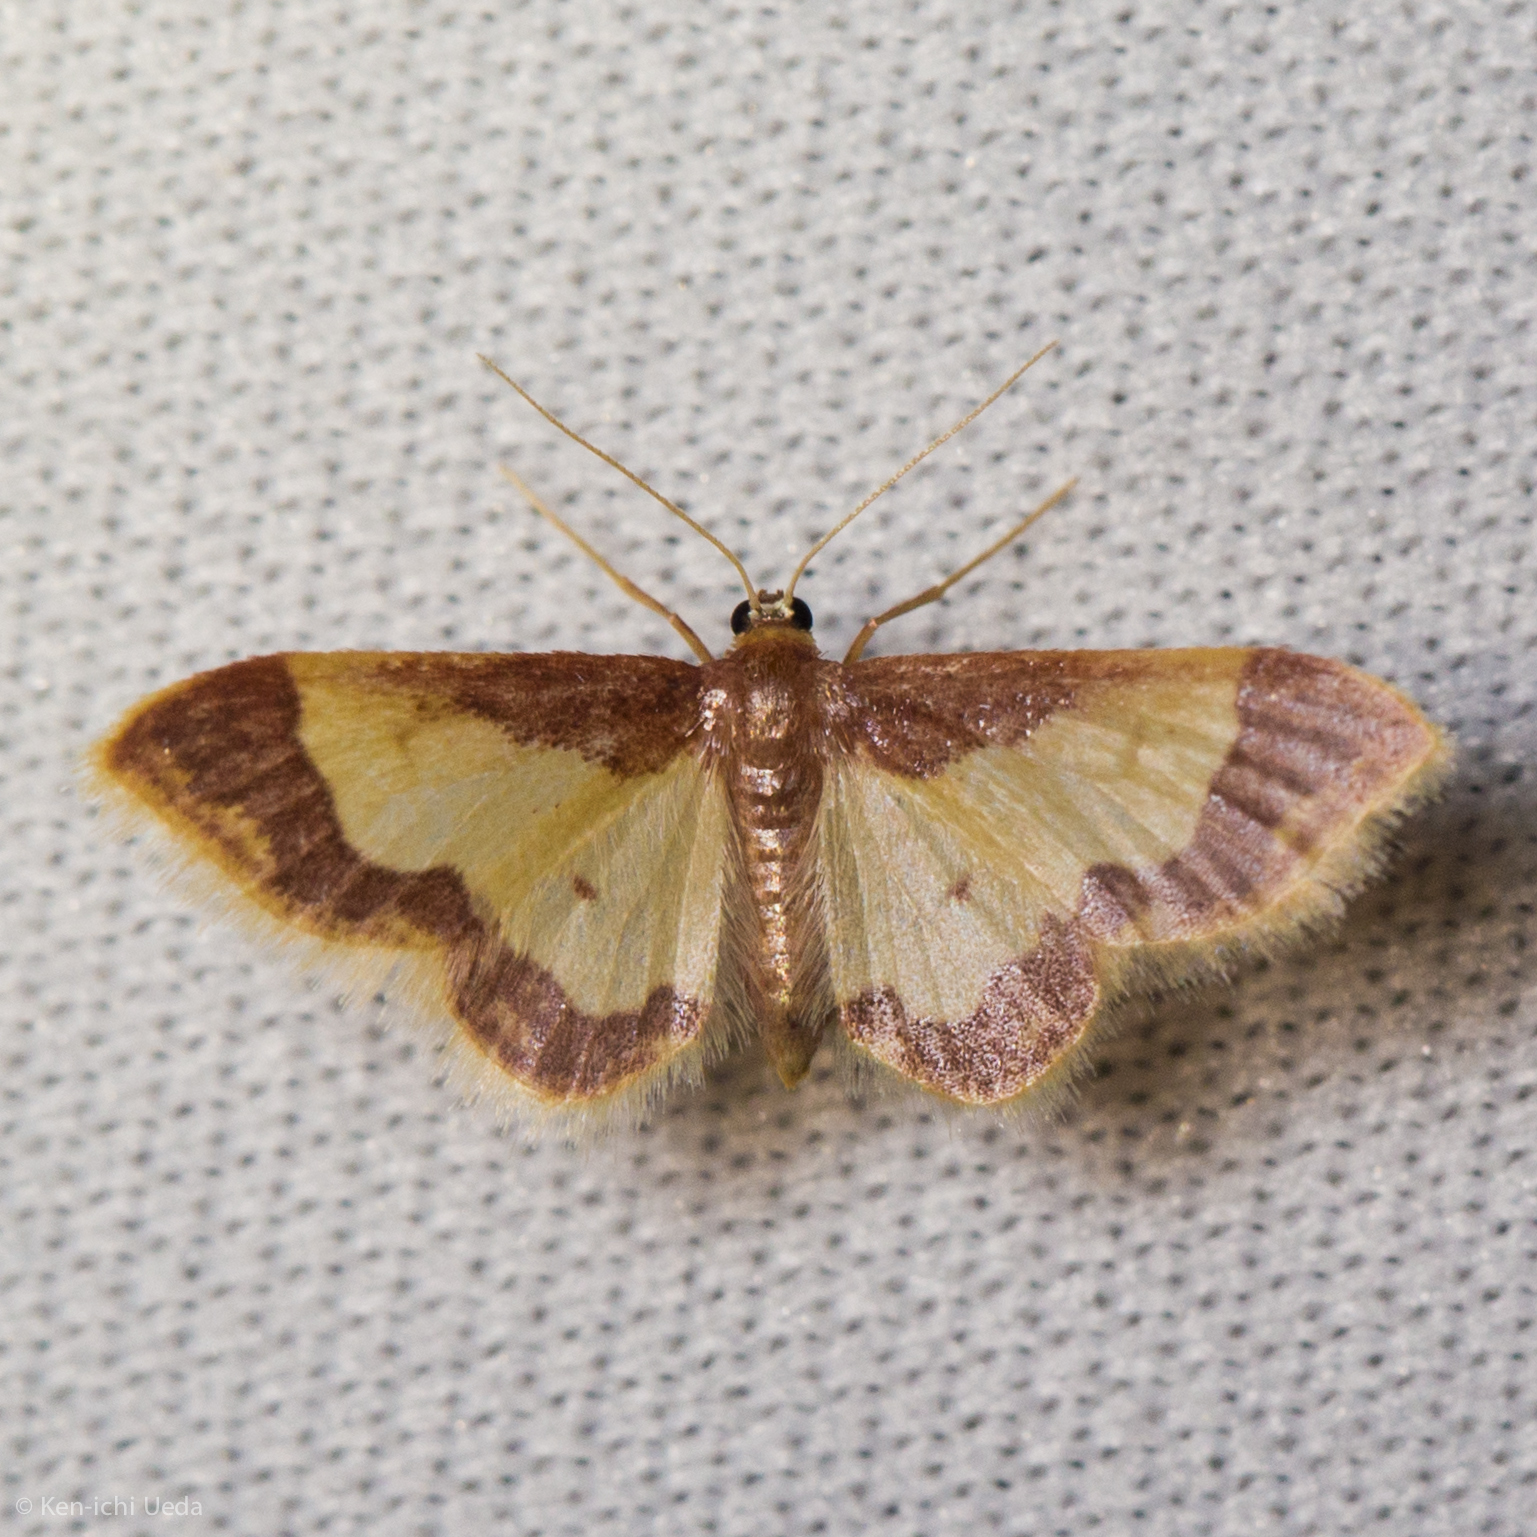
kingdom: Animalia
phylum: Arthropoda
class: Insecta
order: Lepidoptera
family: Geometridae
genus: Idaea
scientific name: Idaea basinta
